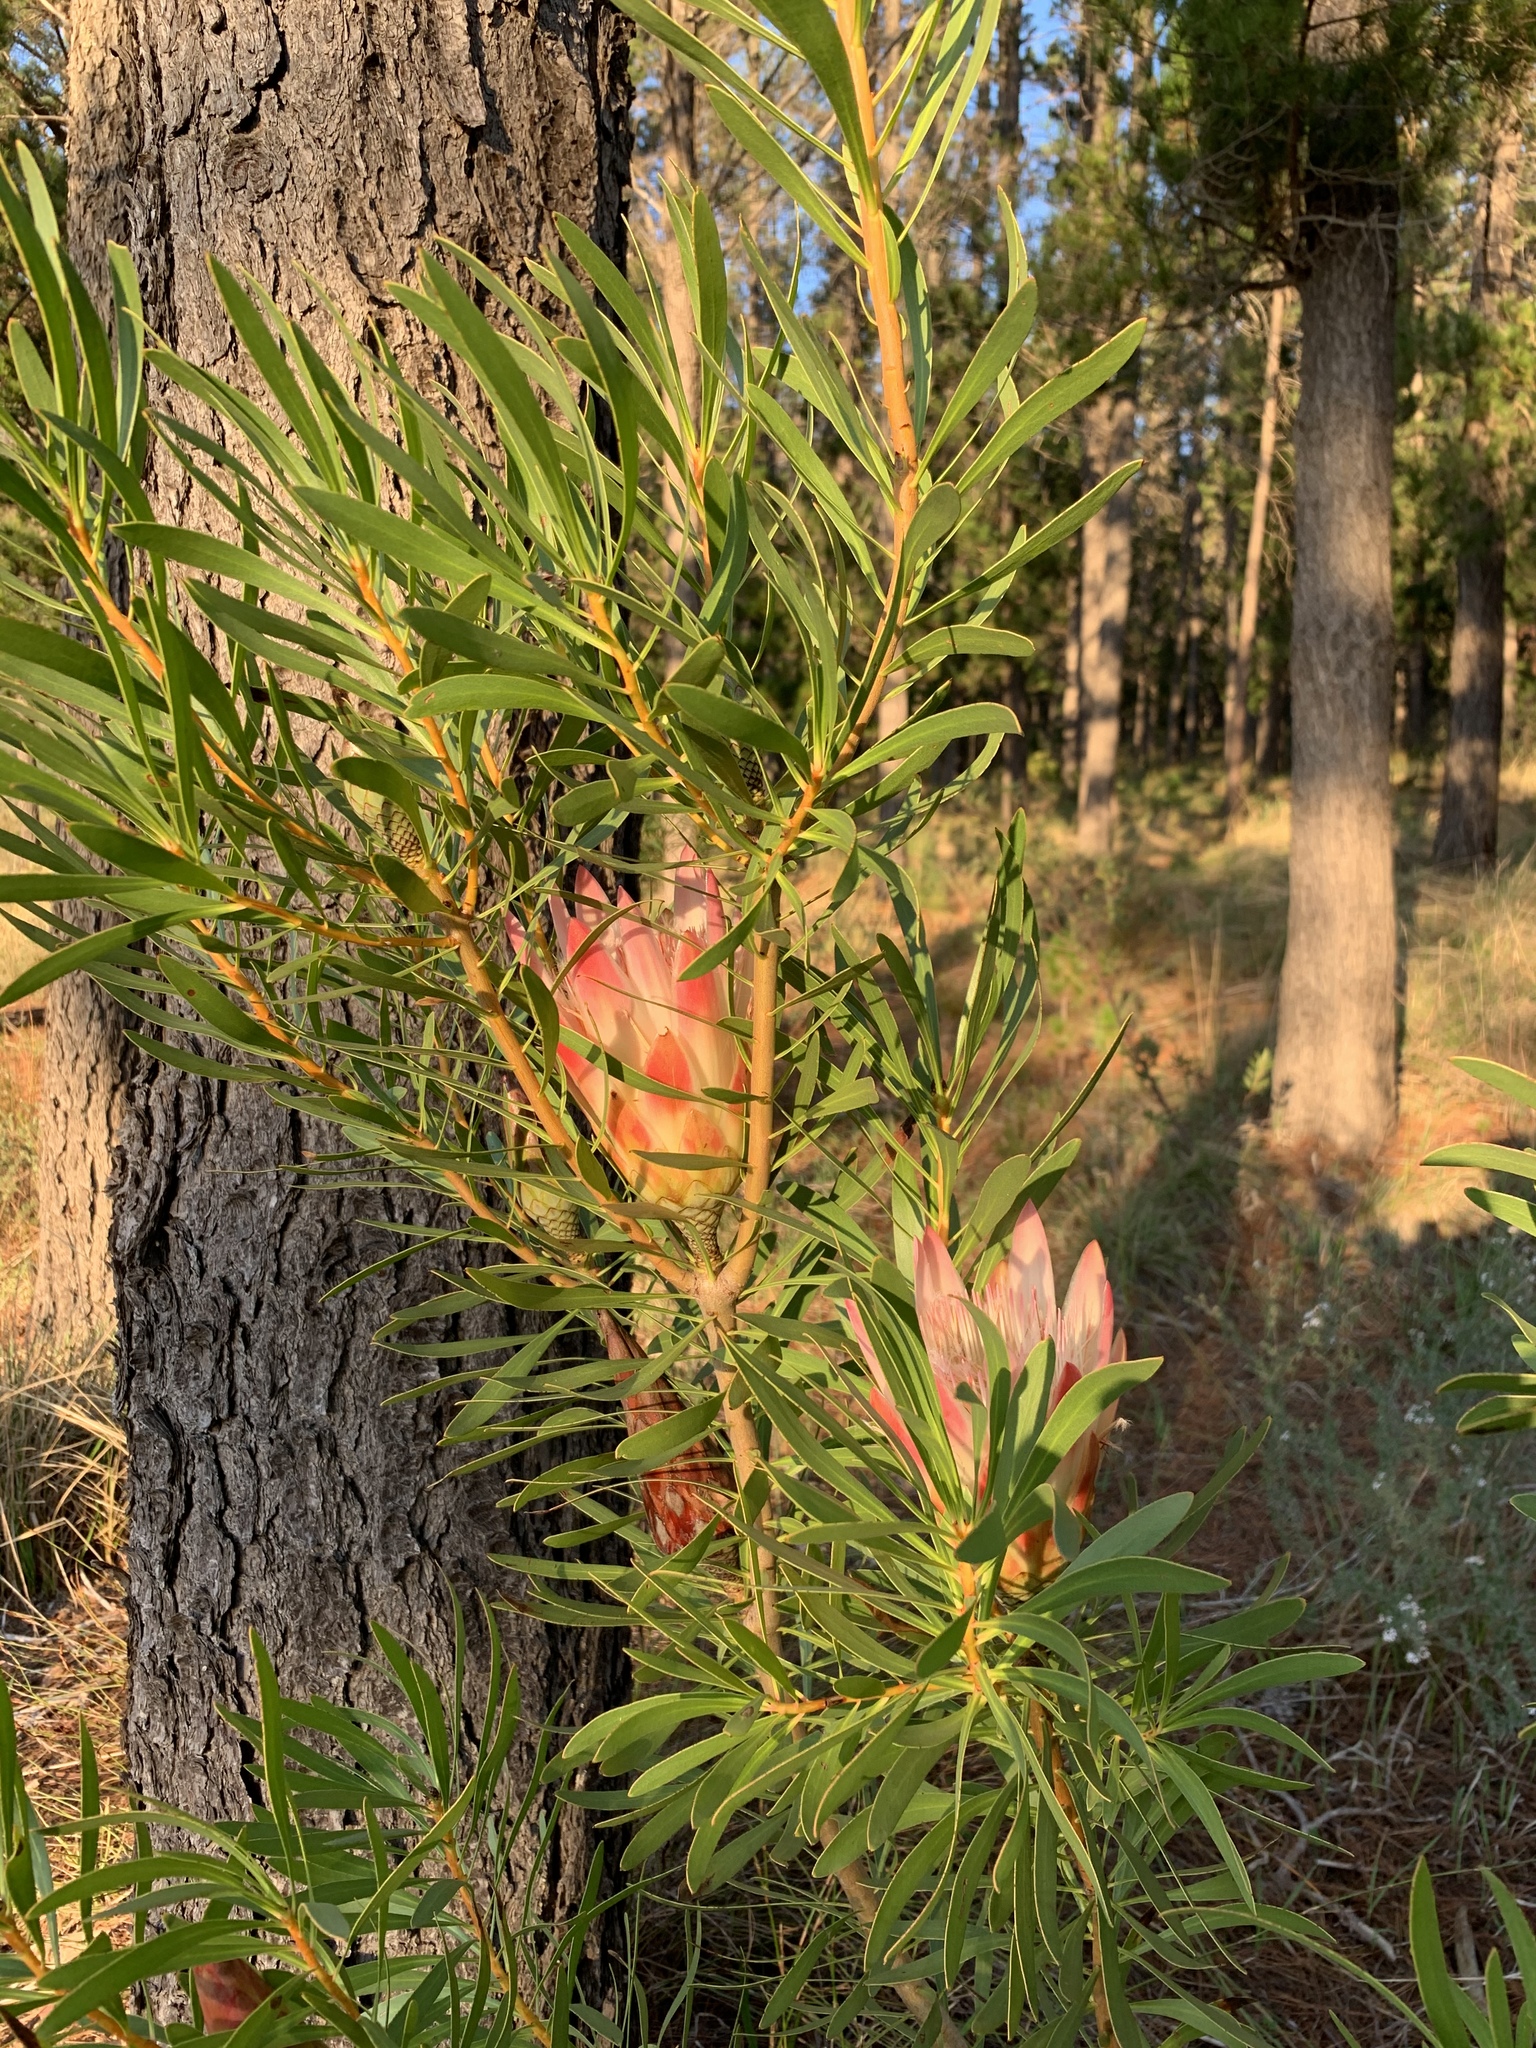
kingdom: Plantae
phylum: Tracheophyta
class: Magnoliopsida
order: Proteales
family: Proteaceae
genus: Protea
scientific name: Protea repens
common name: Sugarbush
